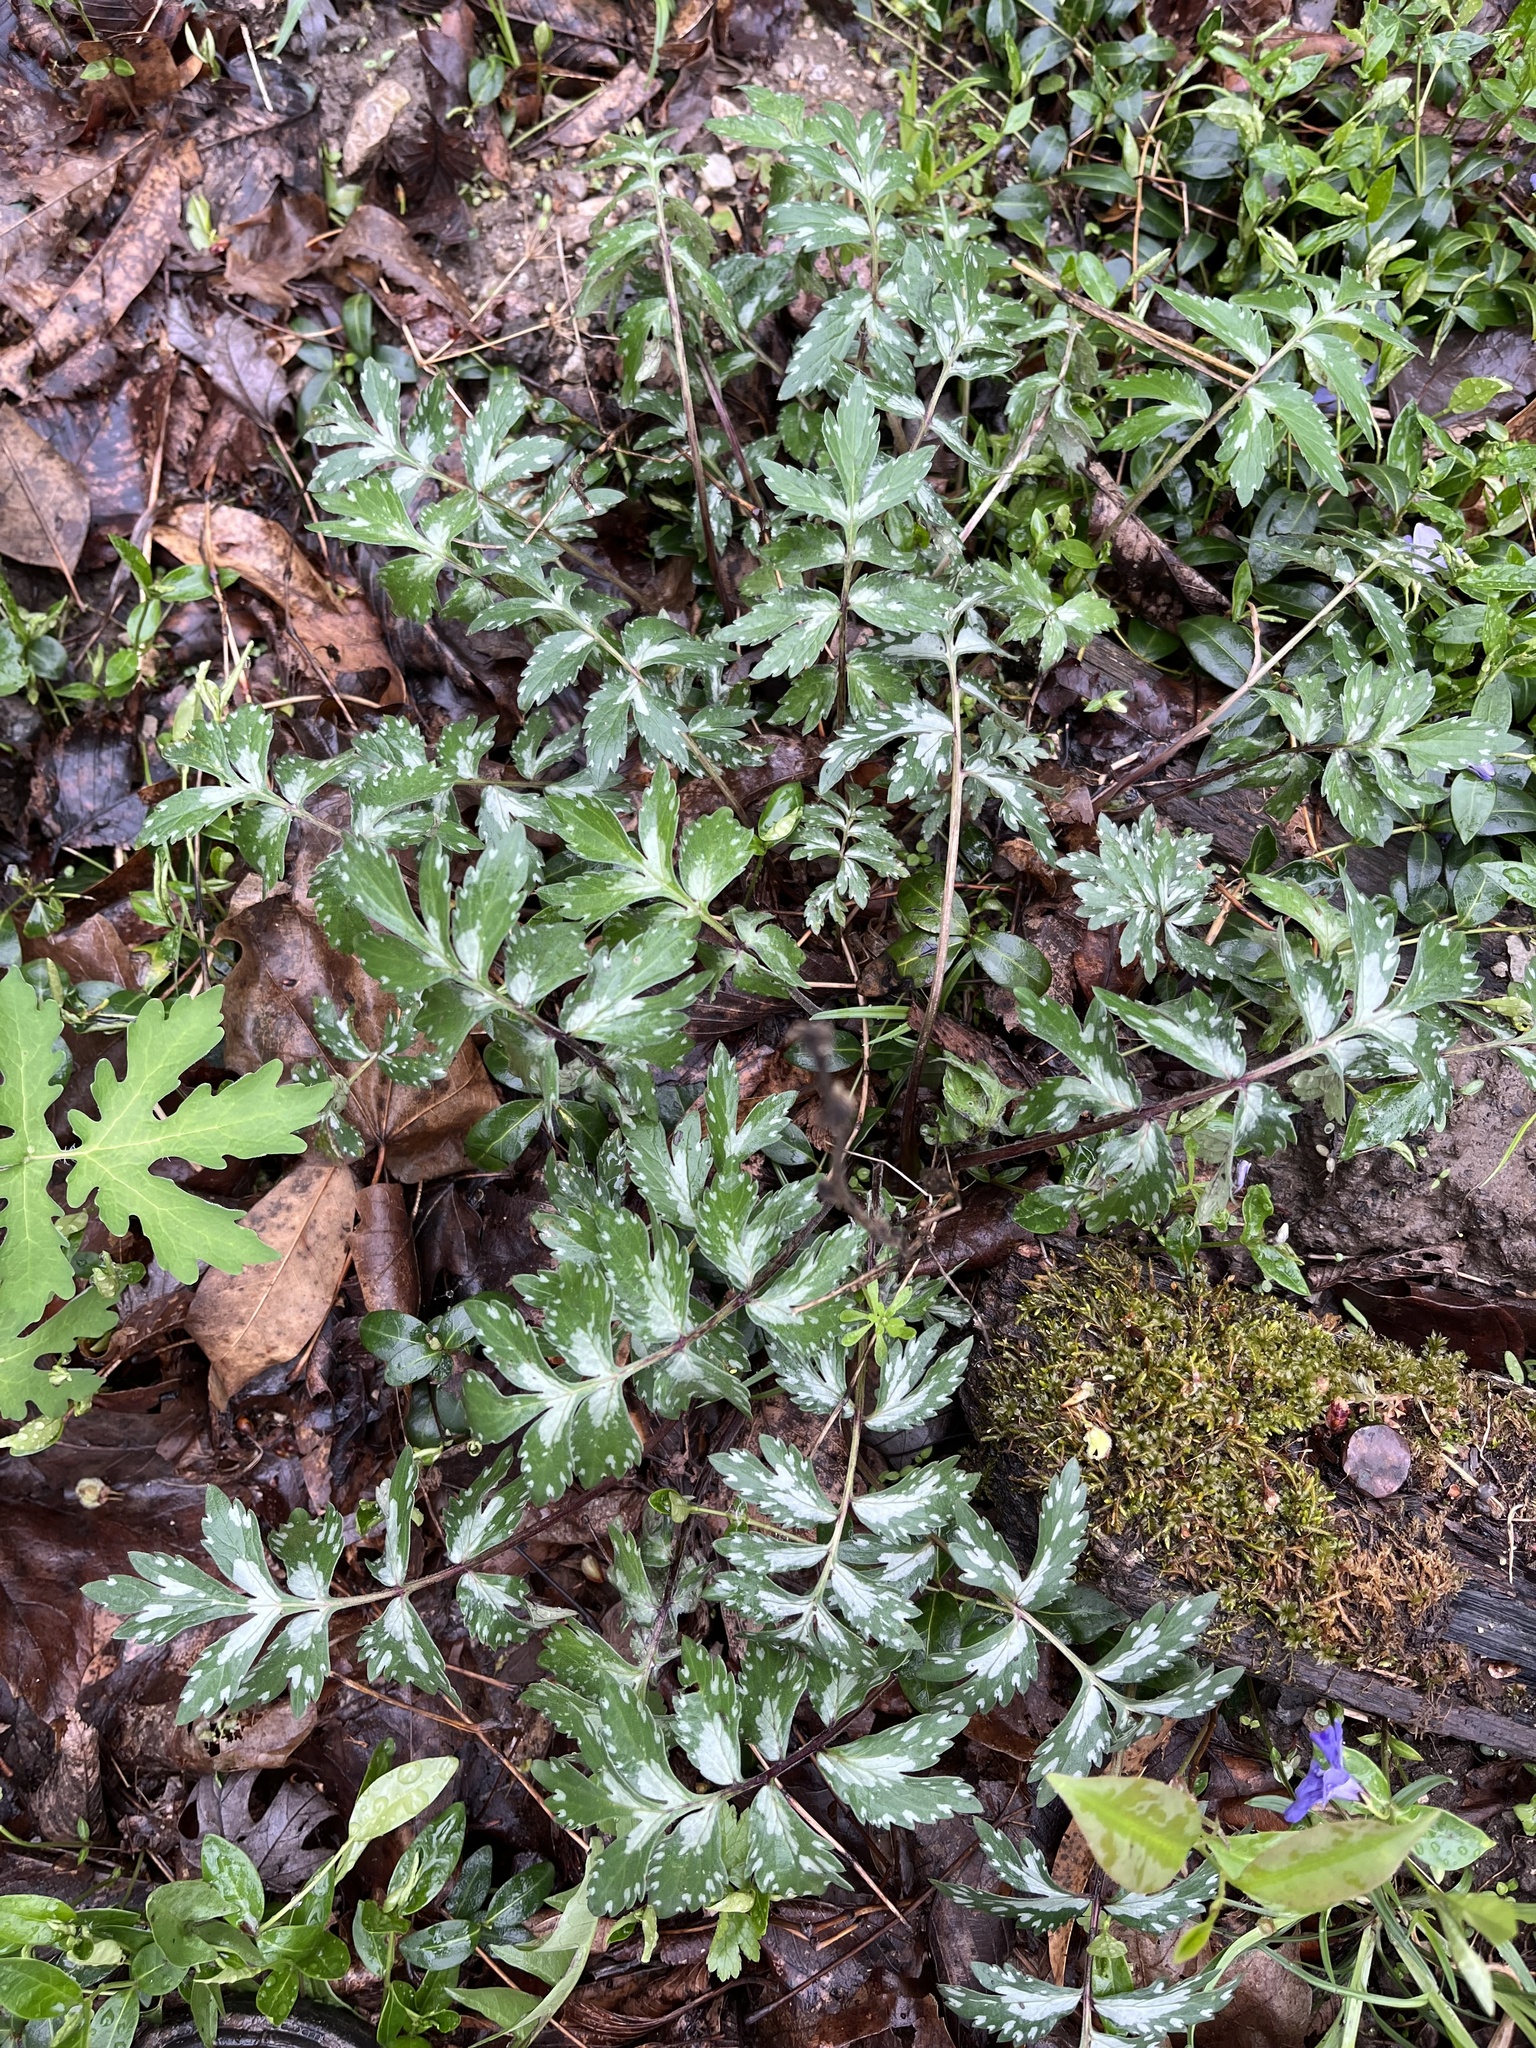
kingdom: Plantae
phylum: Tracheophyta
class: Magnoliopsida
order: Boraginales
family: Hydrophyllaceae
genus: Hydrophyllum
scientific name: Hydrophyllum virginianum
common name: Virginia waterleaf
